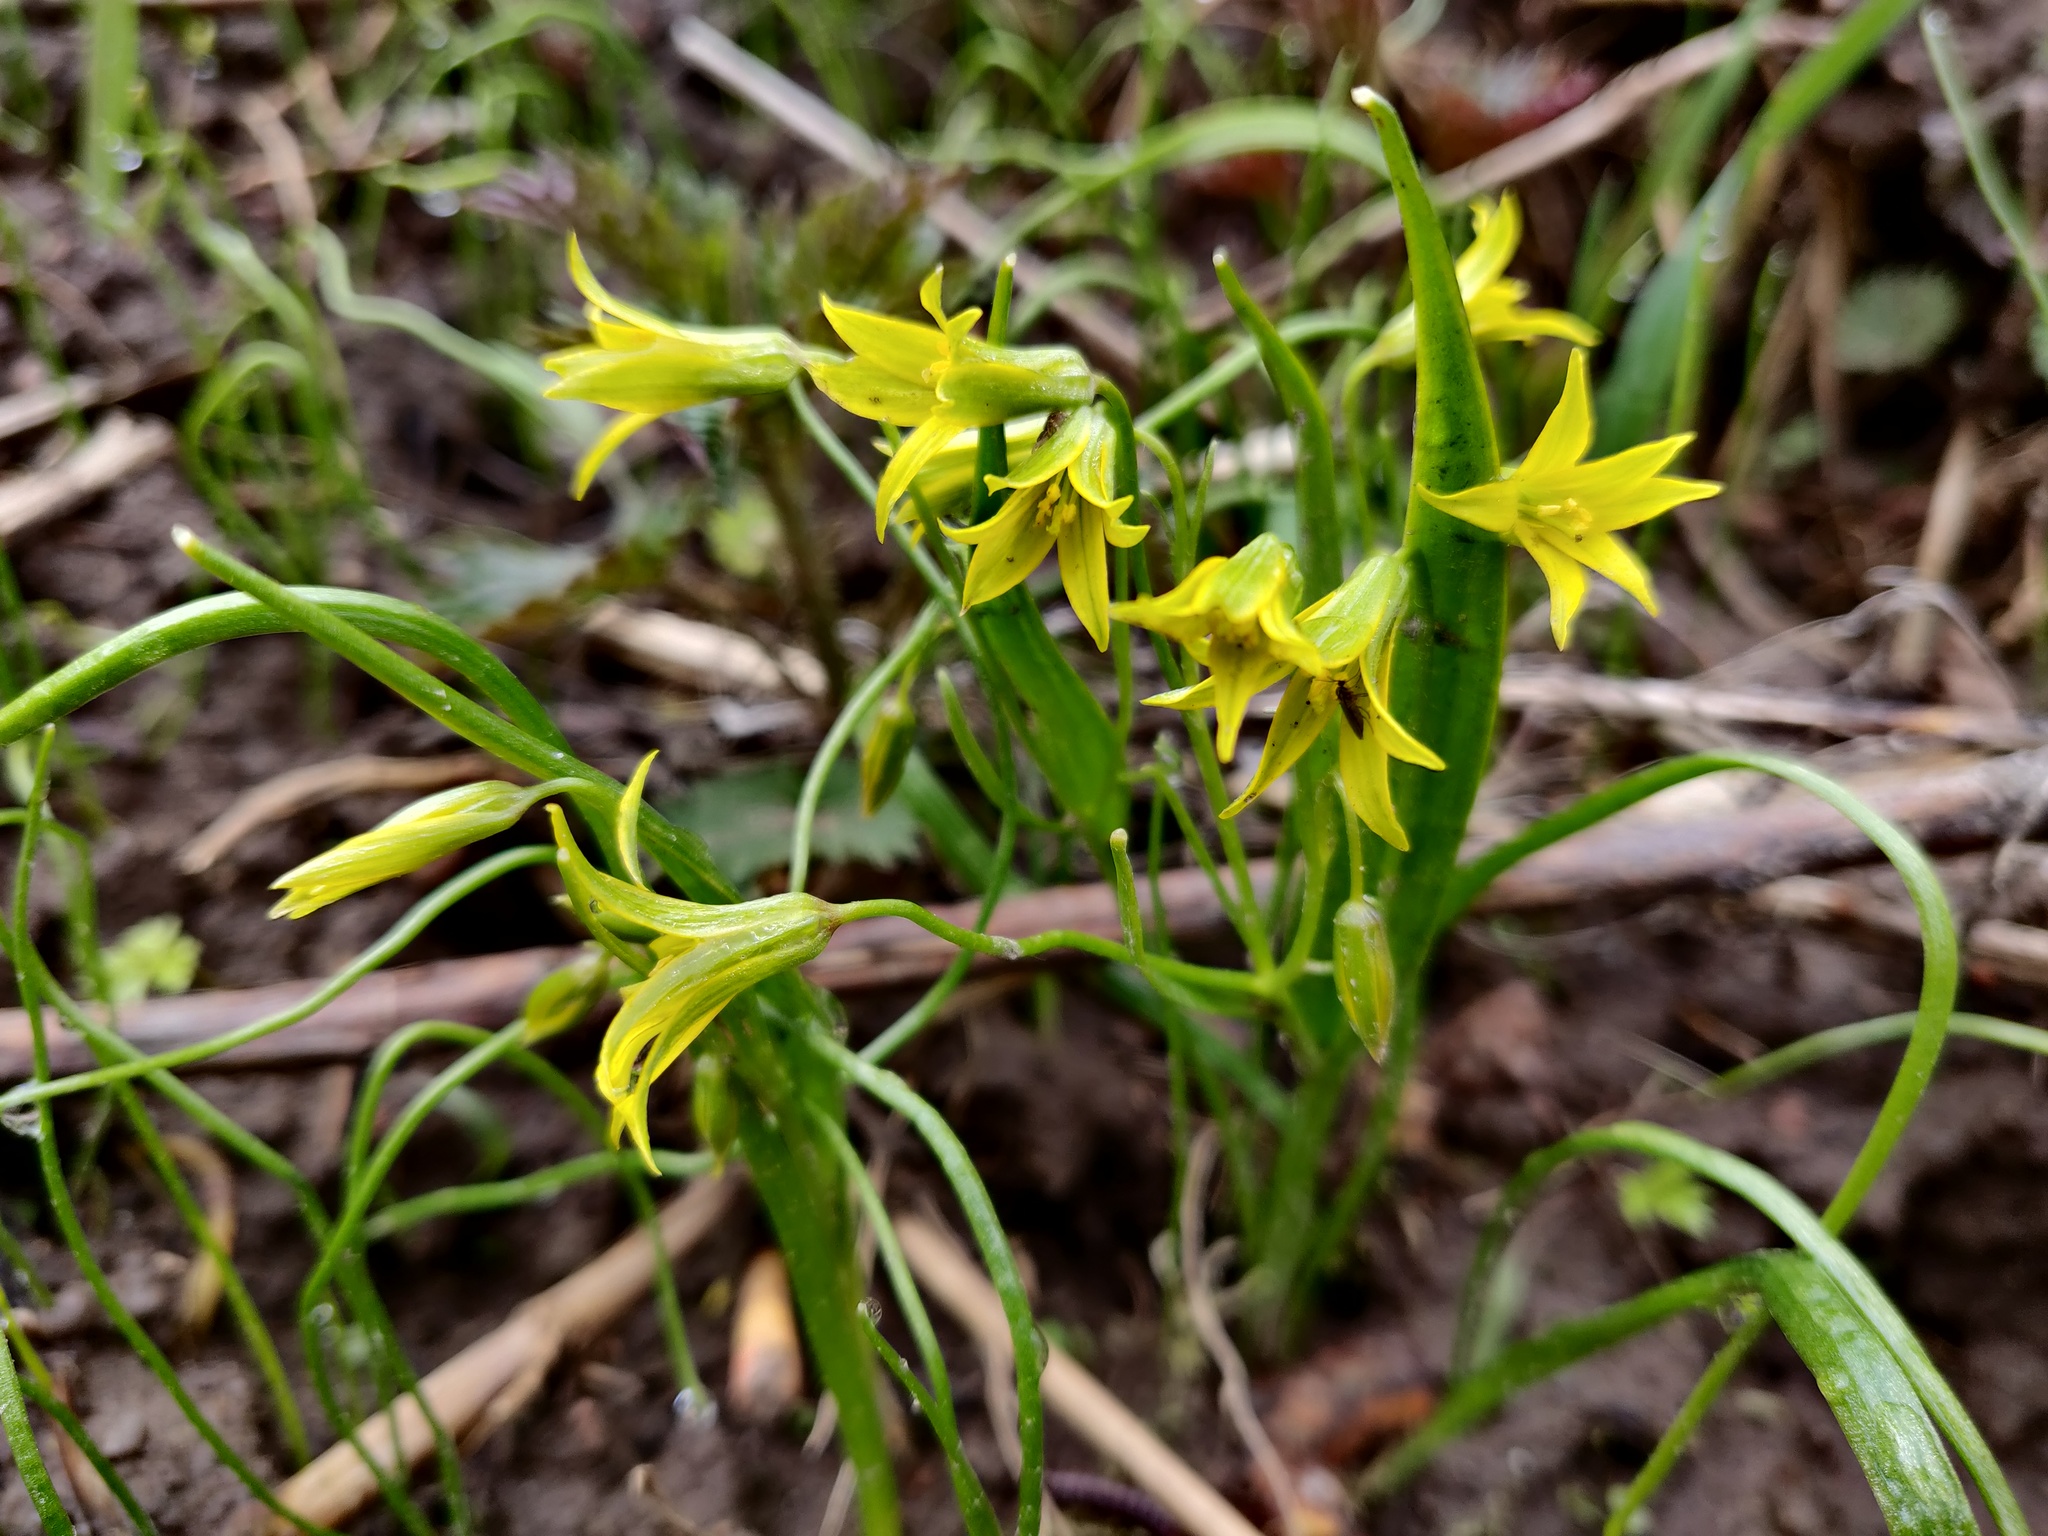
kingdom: Plantae
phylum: Tracheophyta
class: Liliopsida
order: Liliales
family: Liliaceae
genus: Gagea
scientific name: Gagea minima
